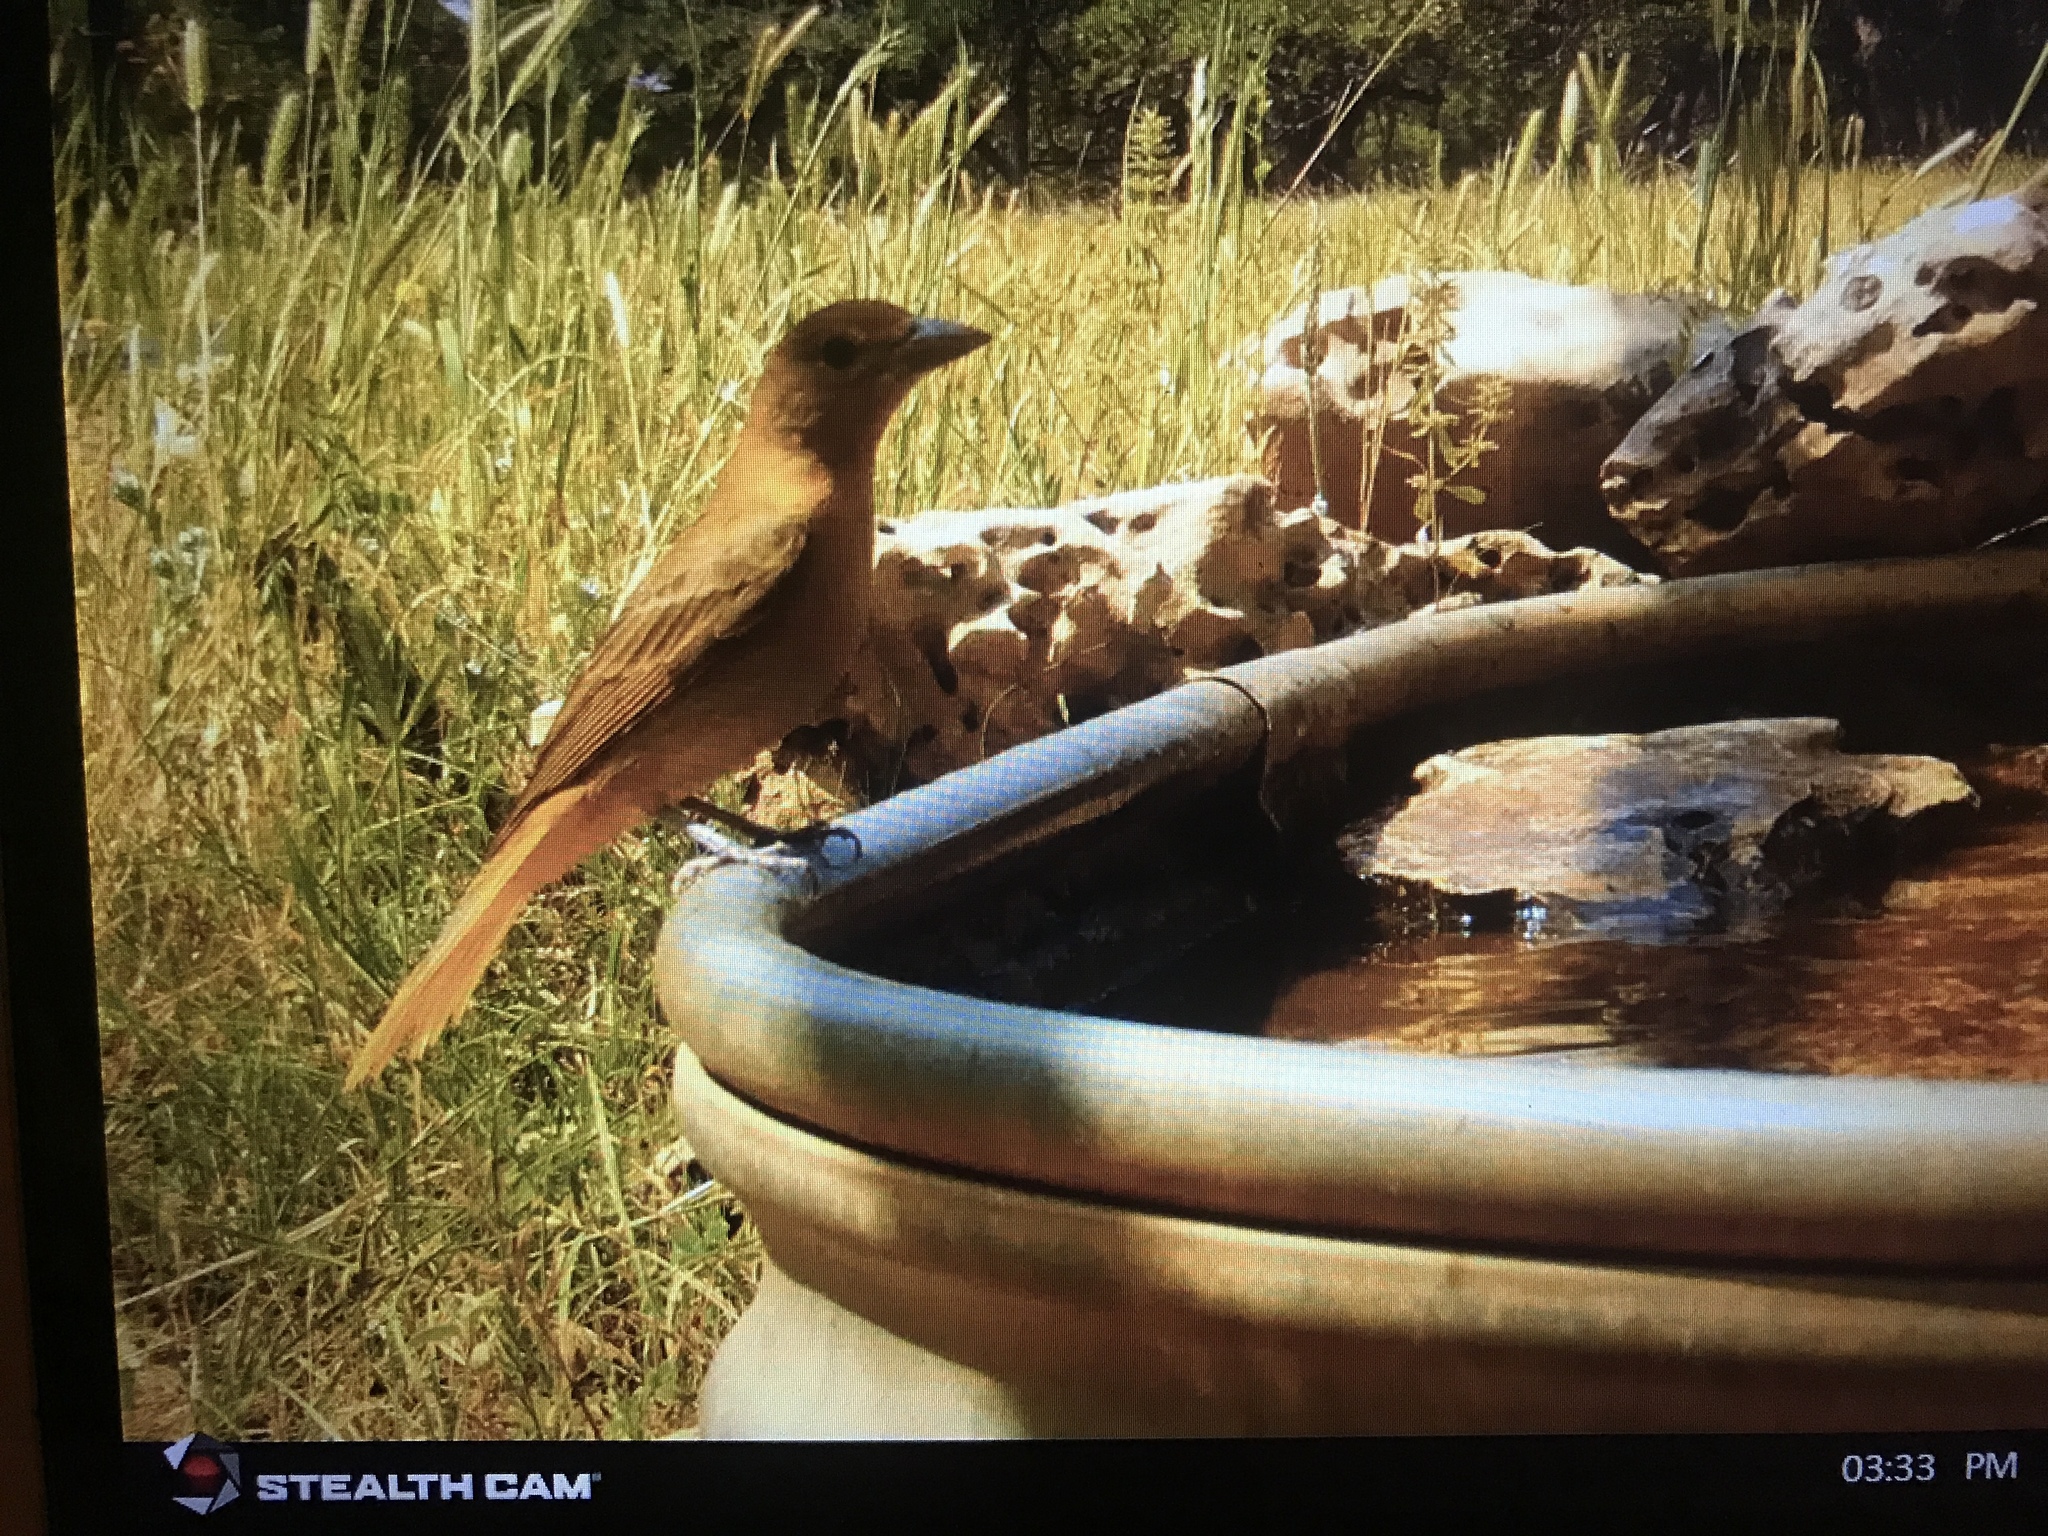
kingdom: Animalia
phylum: Chordata
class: Aves
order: Passeriformes
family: Cardinalidae
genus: Piranga
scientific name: Piranga rubra
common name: Summer tanager
